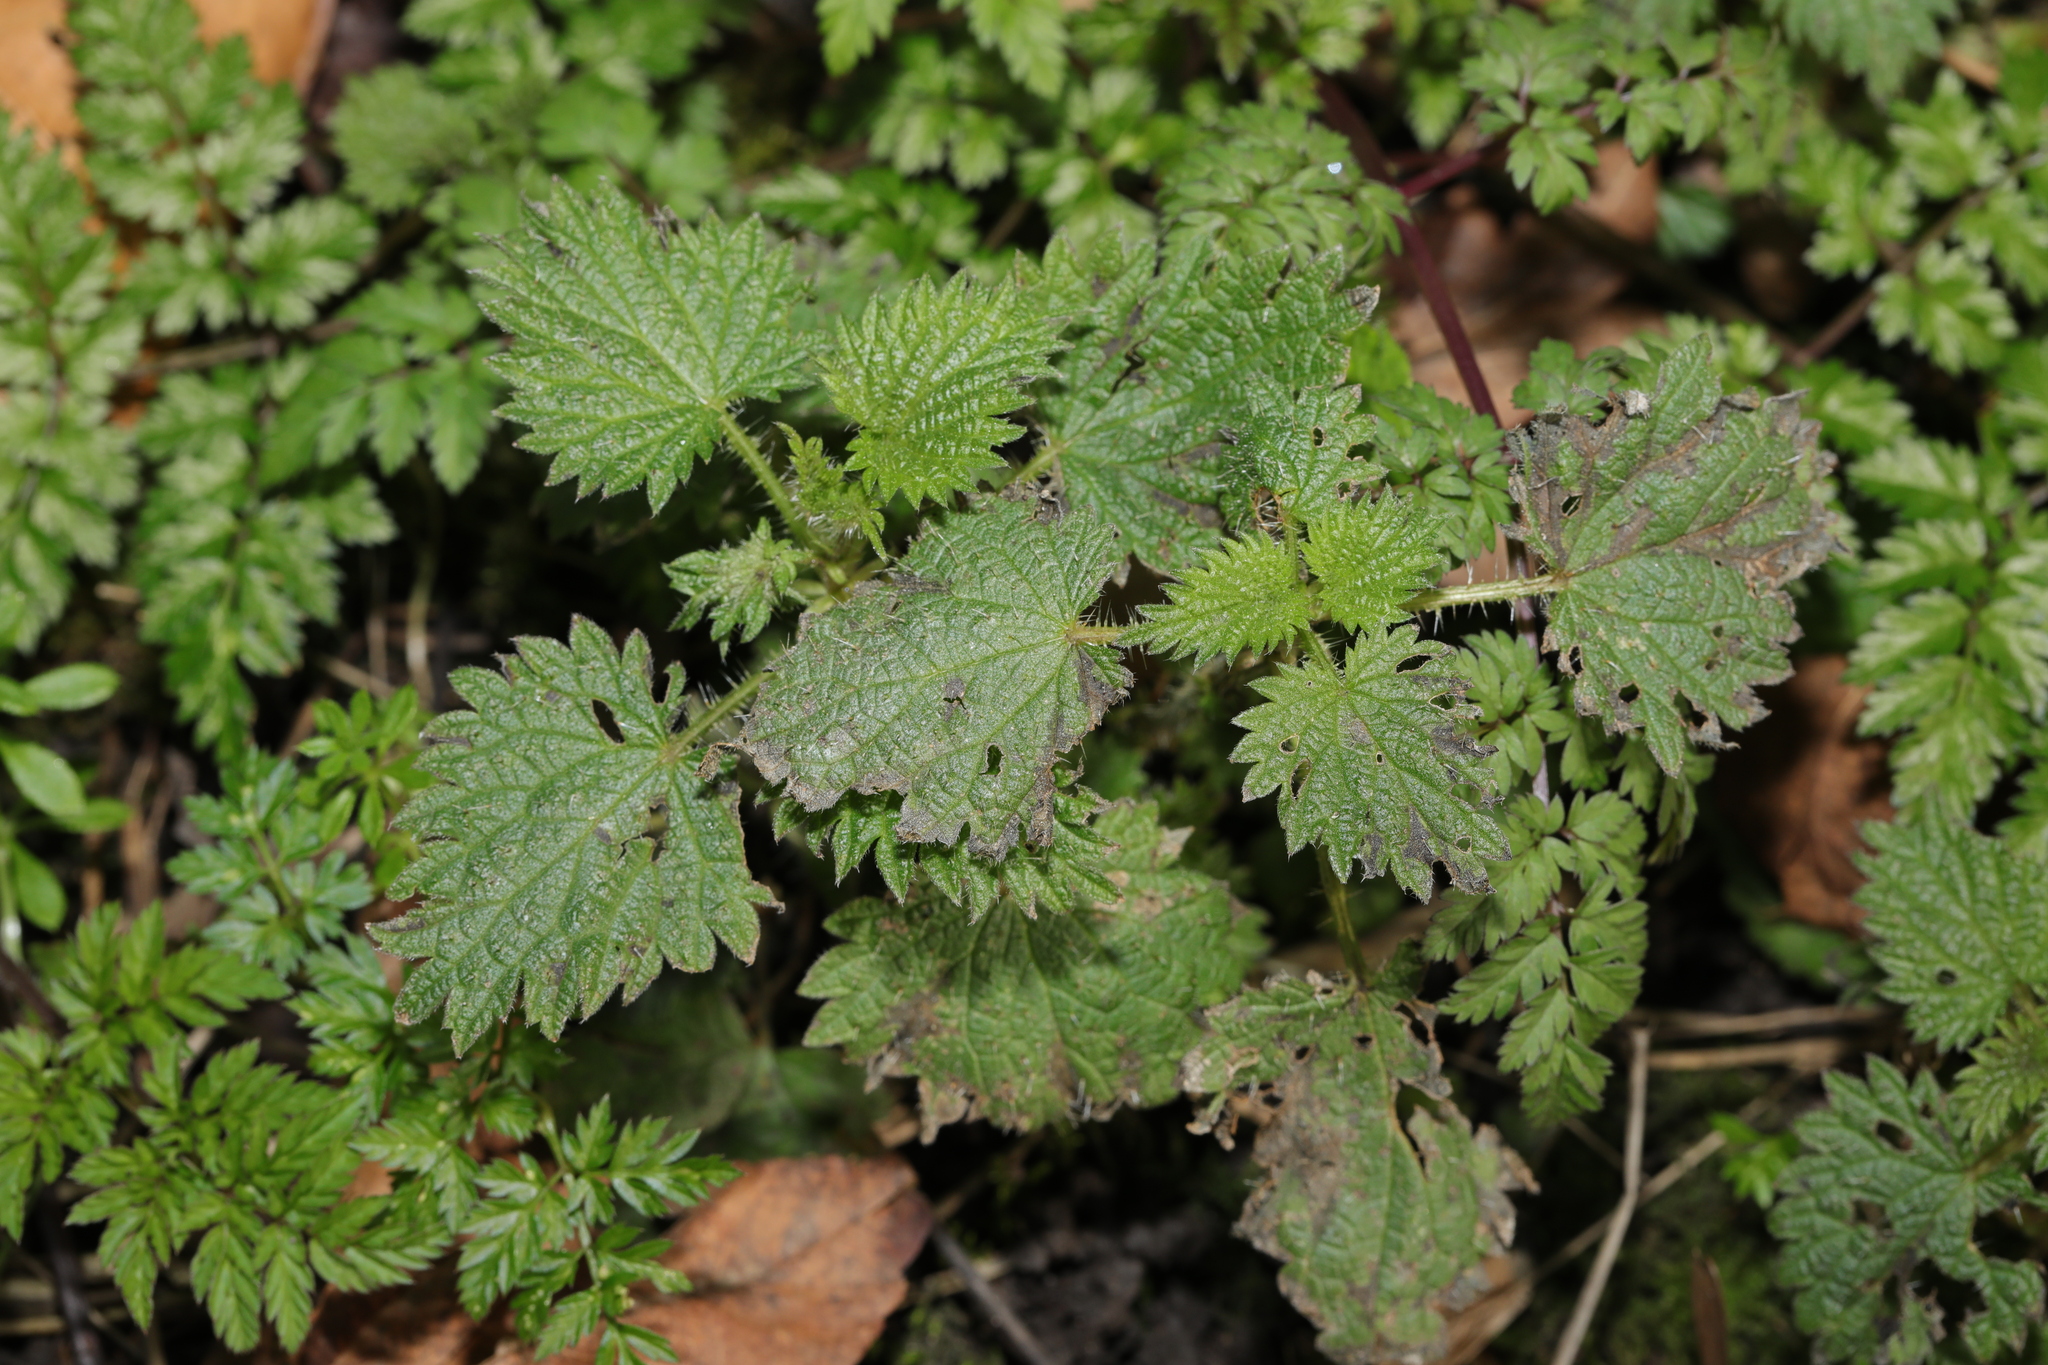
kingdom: Plantae
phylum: Tracheophyta
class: Magnoliopsida
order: Rosales
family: Urticaceae
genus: Urtica
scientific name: Urtica dioica
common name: Common nettle
